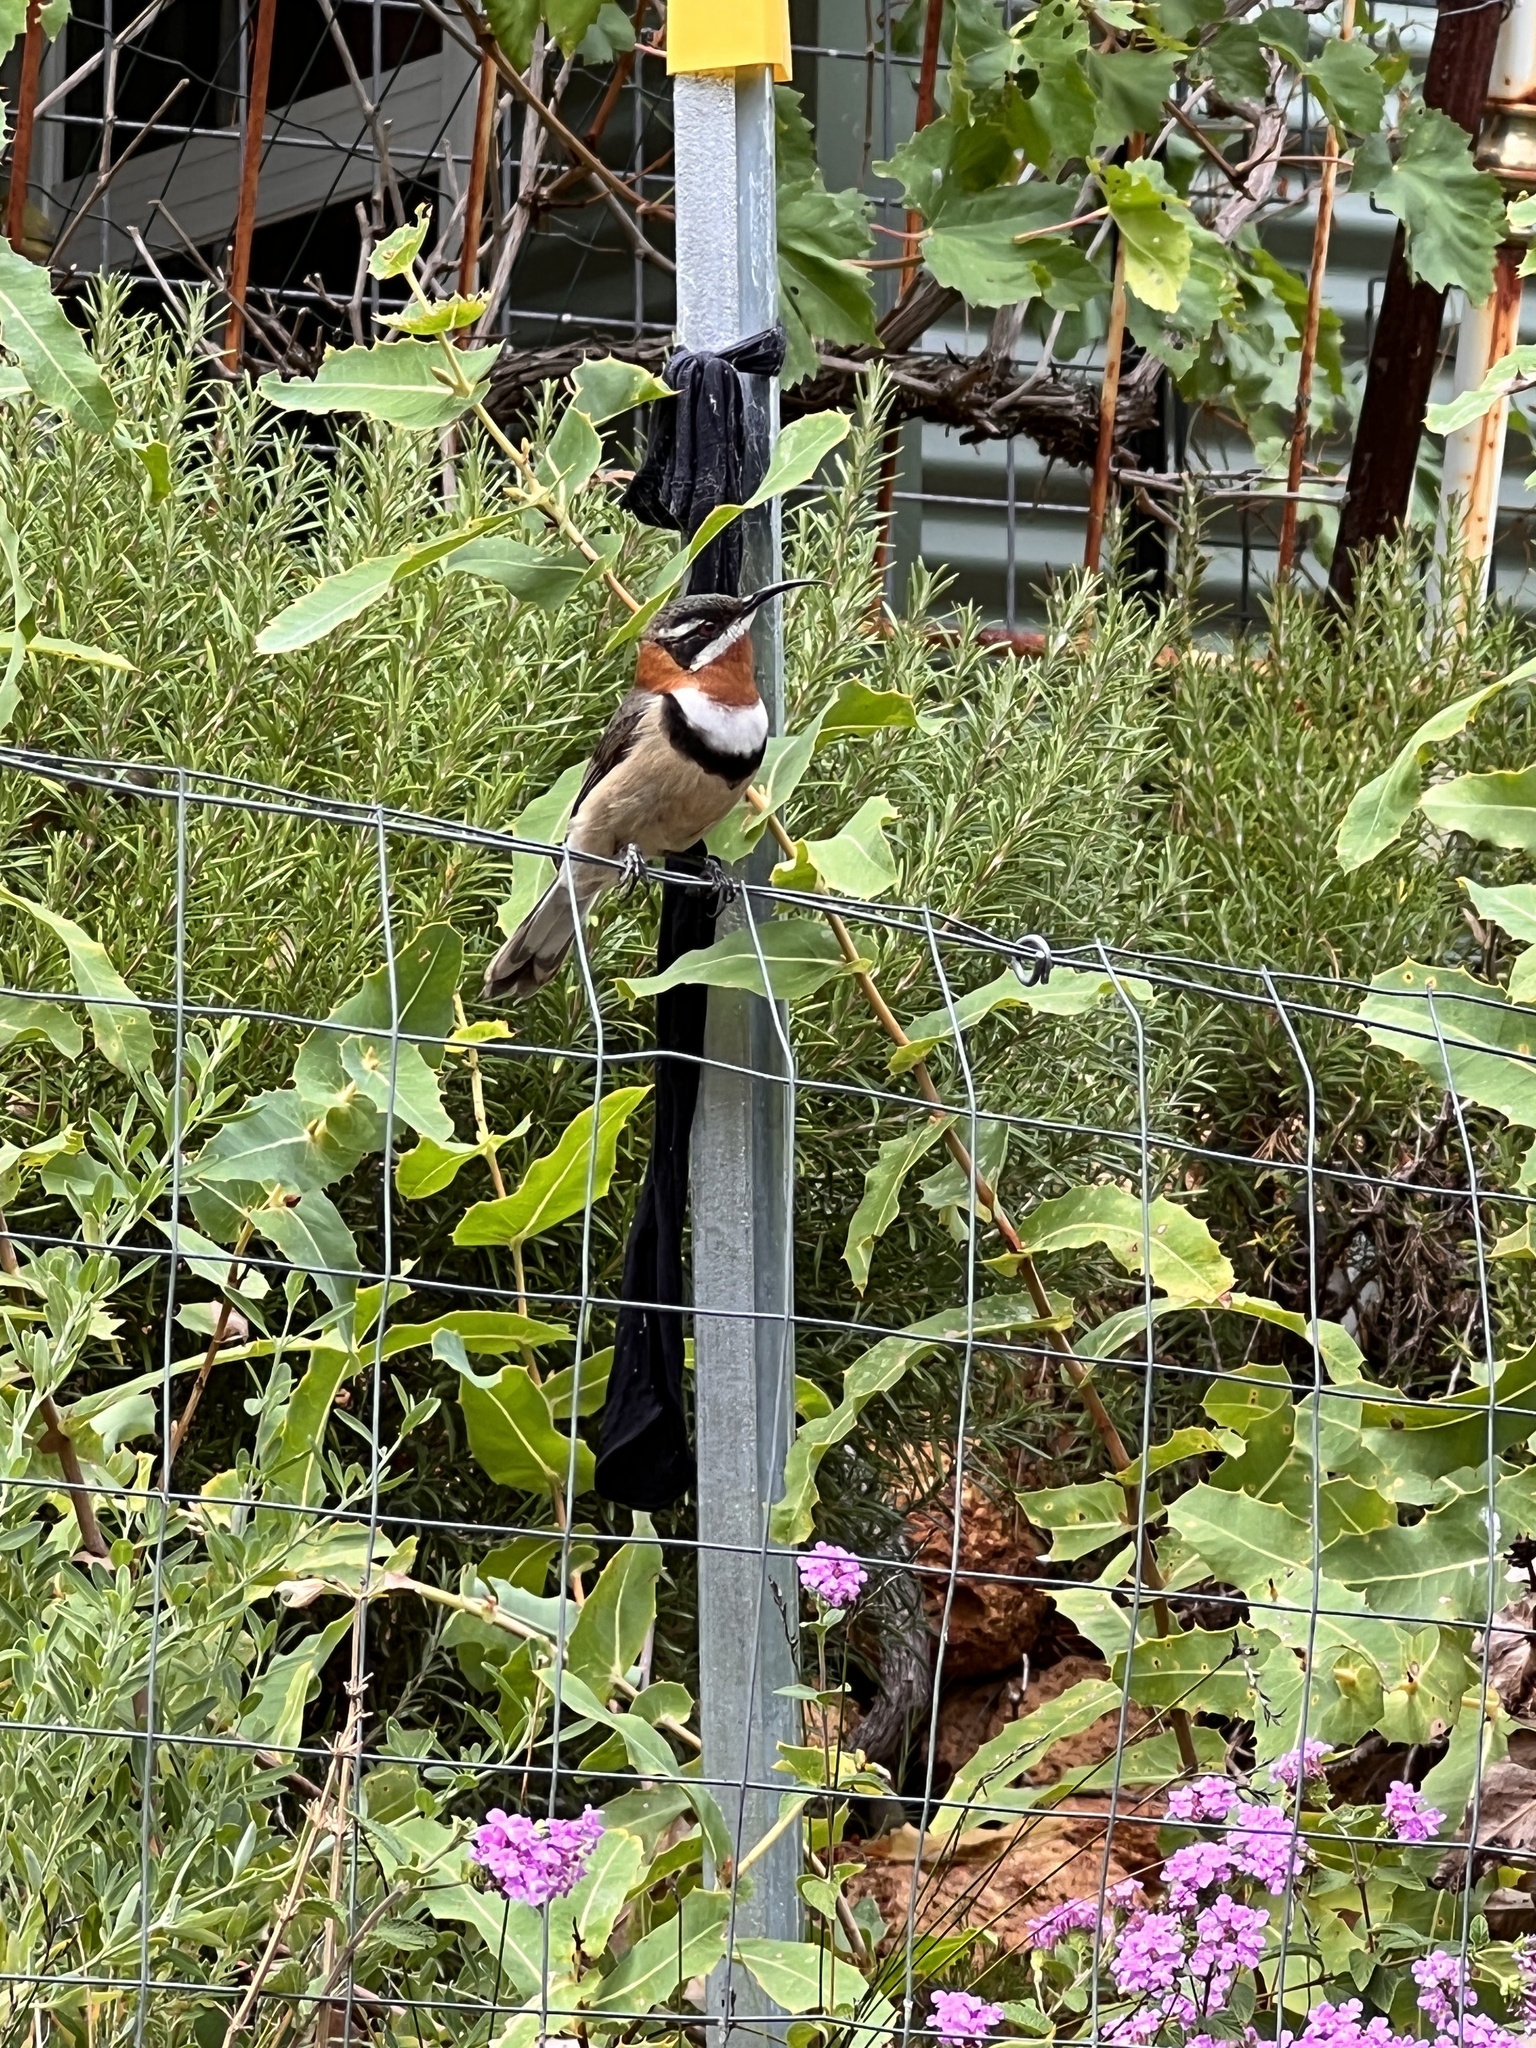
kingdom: Animalia
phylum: Chordata
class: Aves
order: Passeriformes
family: Meliphagidae
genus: Acanthorhynchus
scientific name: Acanthorhynchus superciliosus
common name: Western spinebill
